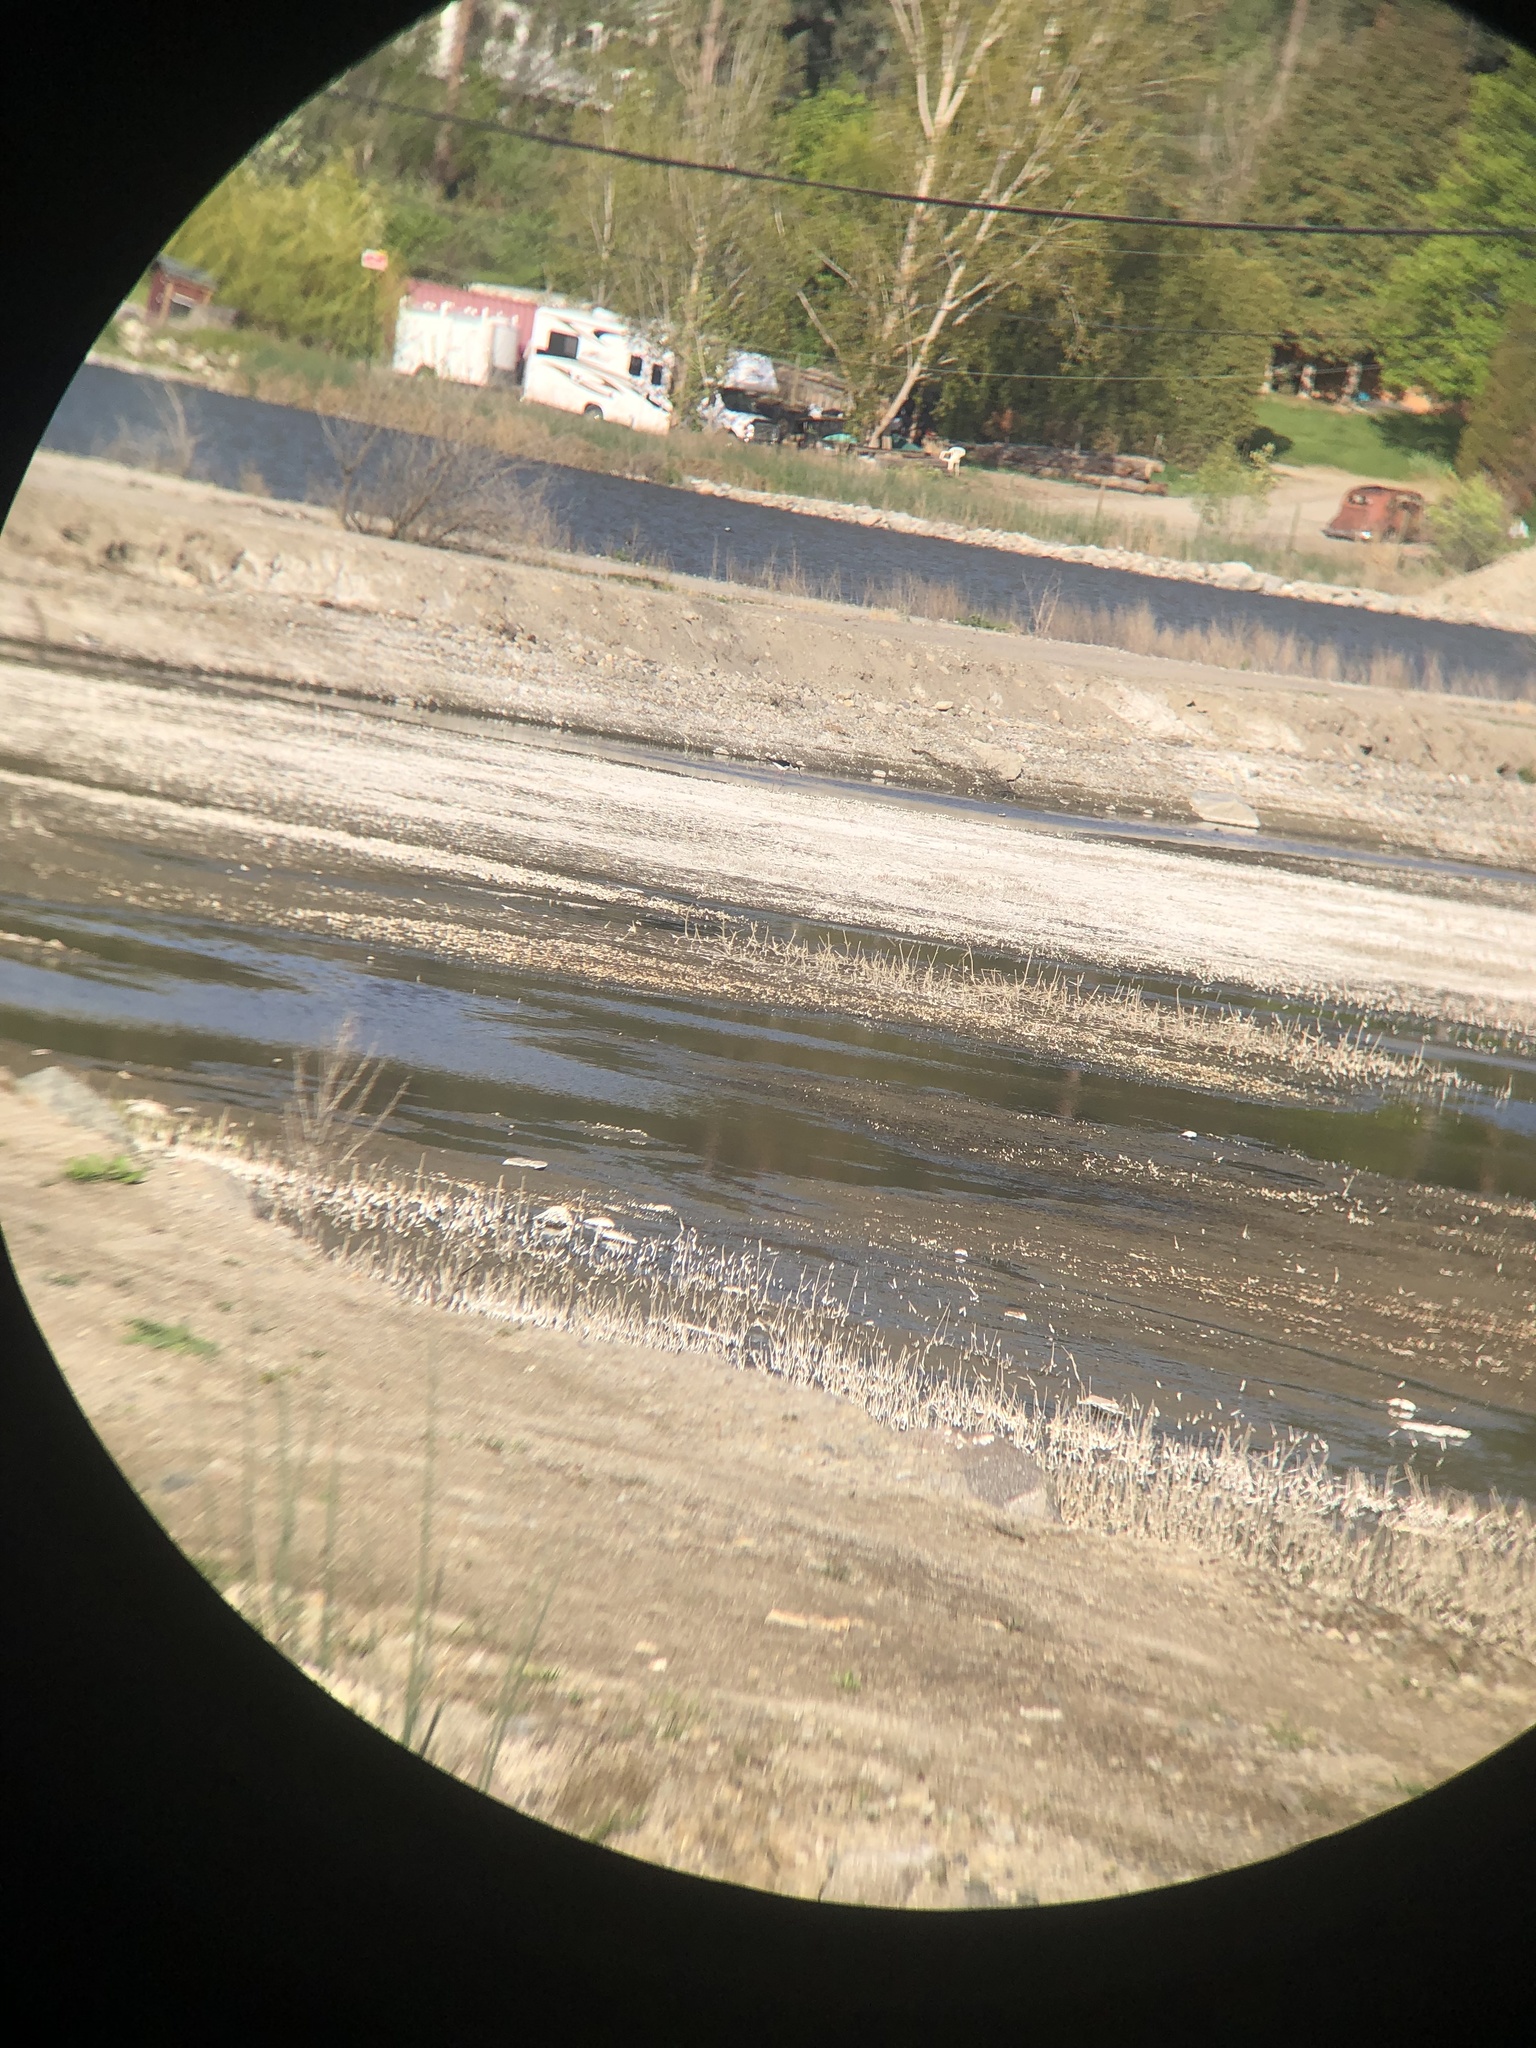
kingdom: Animalia
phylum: Chordata
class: Aves
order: Charadriiformes
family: Recurvirostridae
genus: Himantopus
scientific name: Himantopus mexicanus
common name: Black-necked stilt
